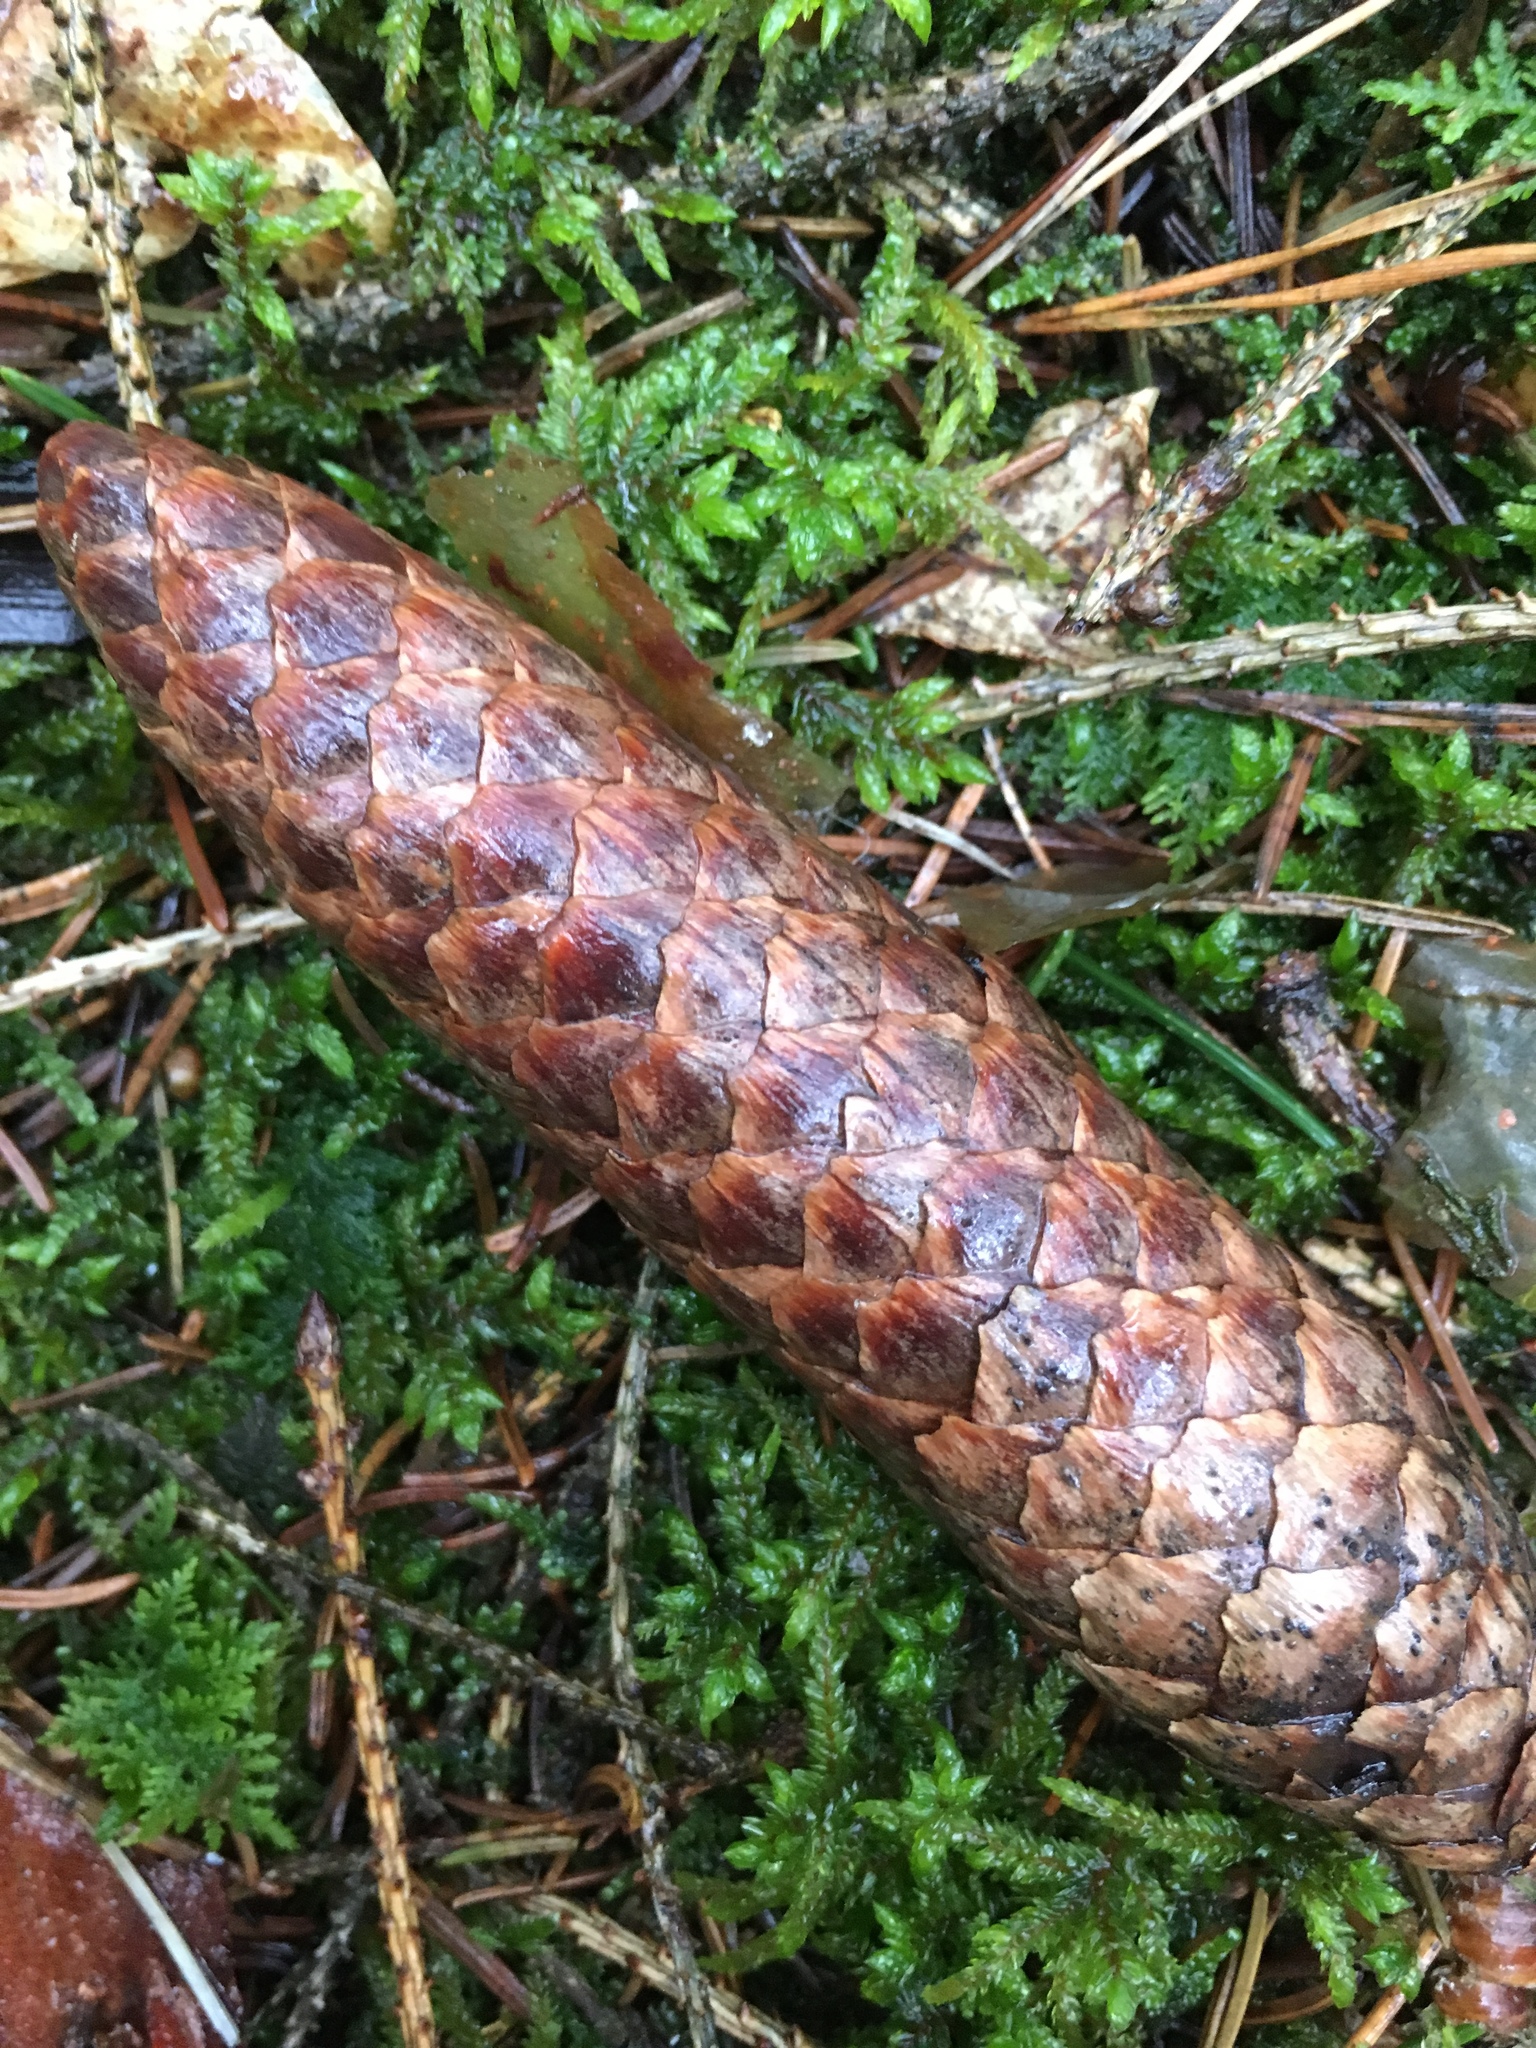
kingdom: Plantae
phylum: Tracheophyta
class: Pinopsida
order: Pinales
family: Pinaceae
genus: Picea
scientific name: Picea abies
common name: Norway spruce
